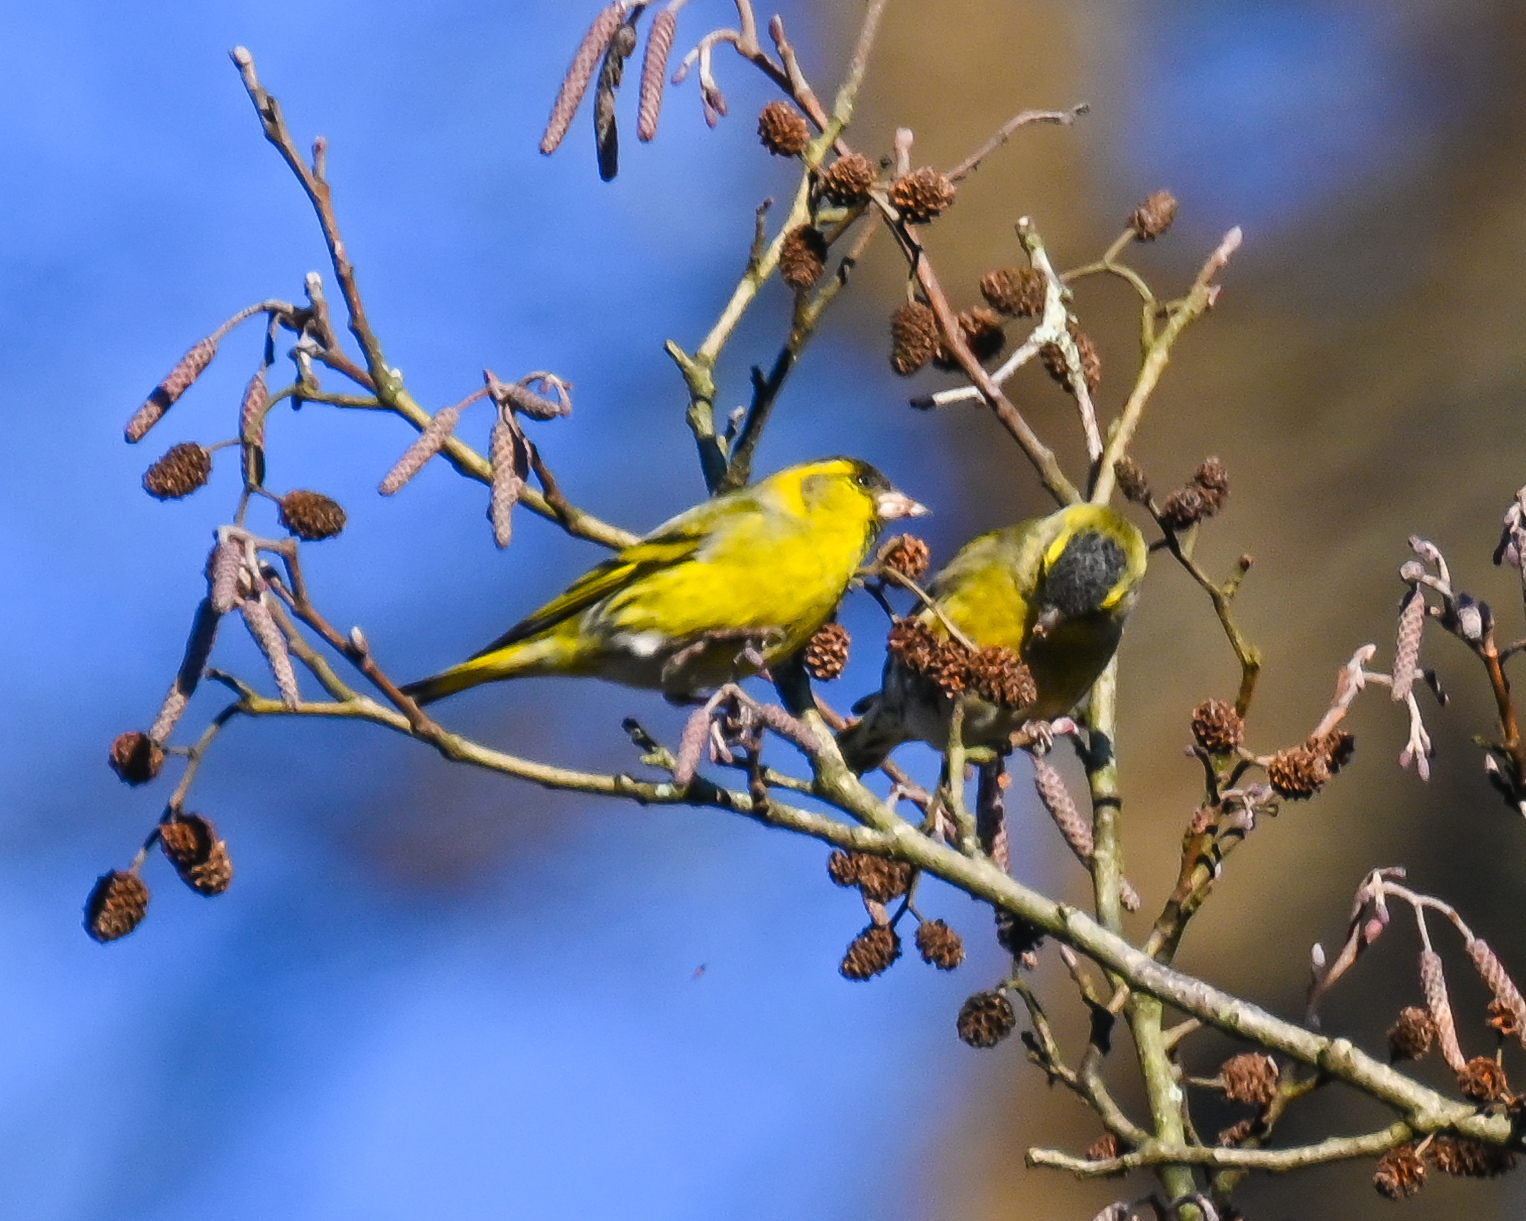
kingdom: Animalia
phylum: Chordata
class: Aves
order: Passeriformes
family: Fringillidae
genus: Spinus
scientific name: Spinus spinus
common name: Eurasian siskin
